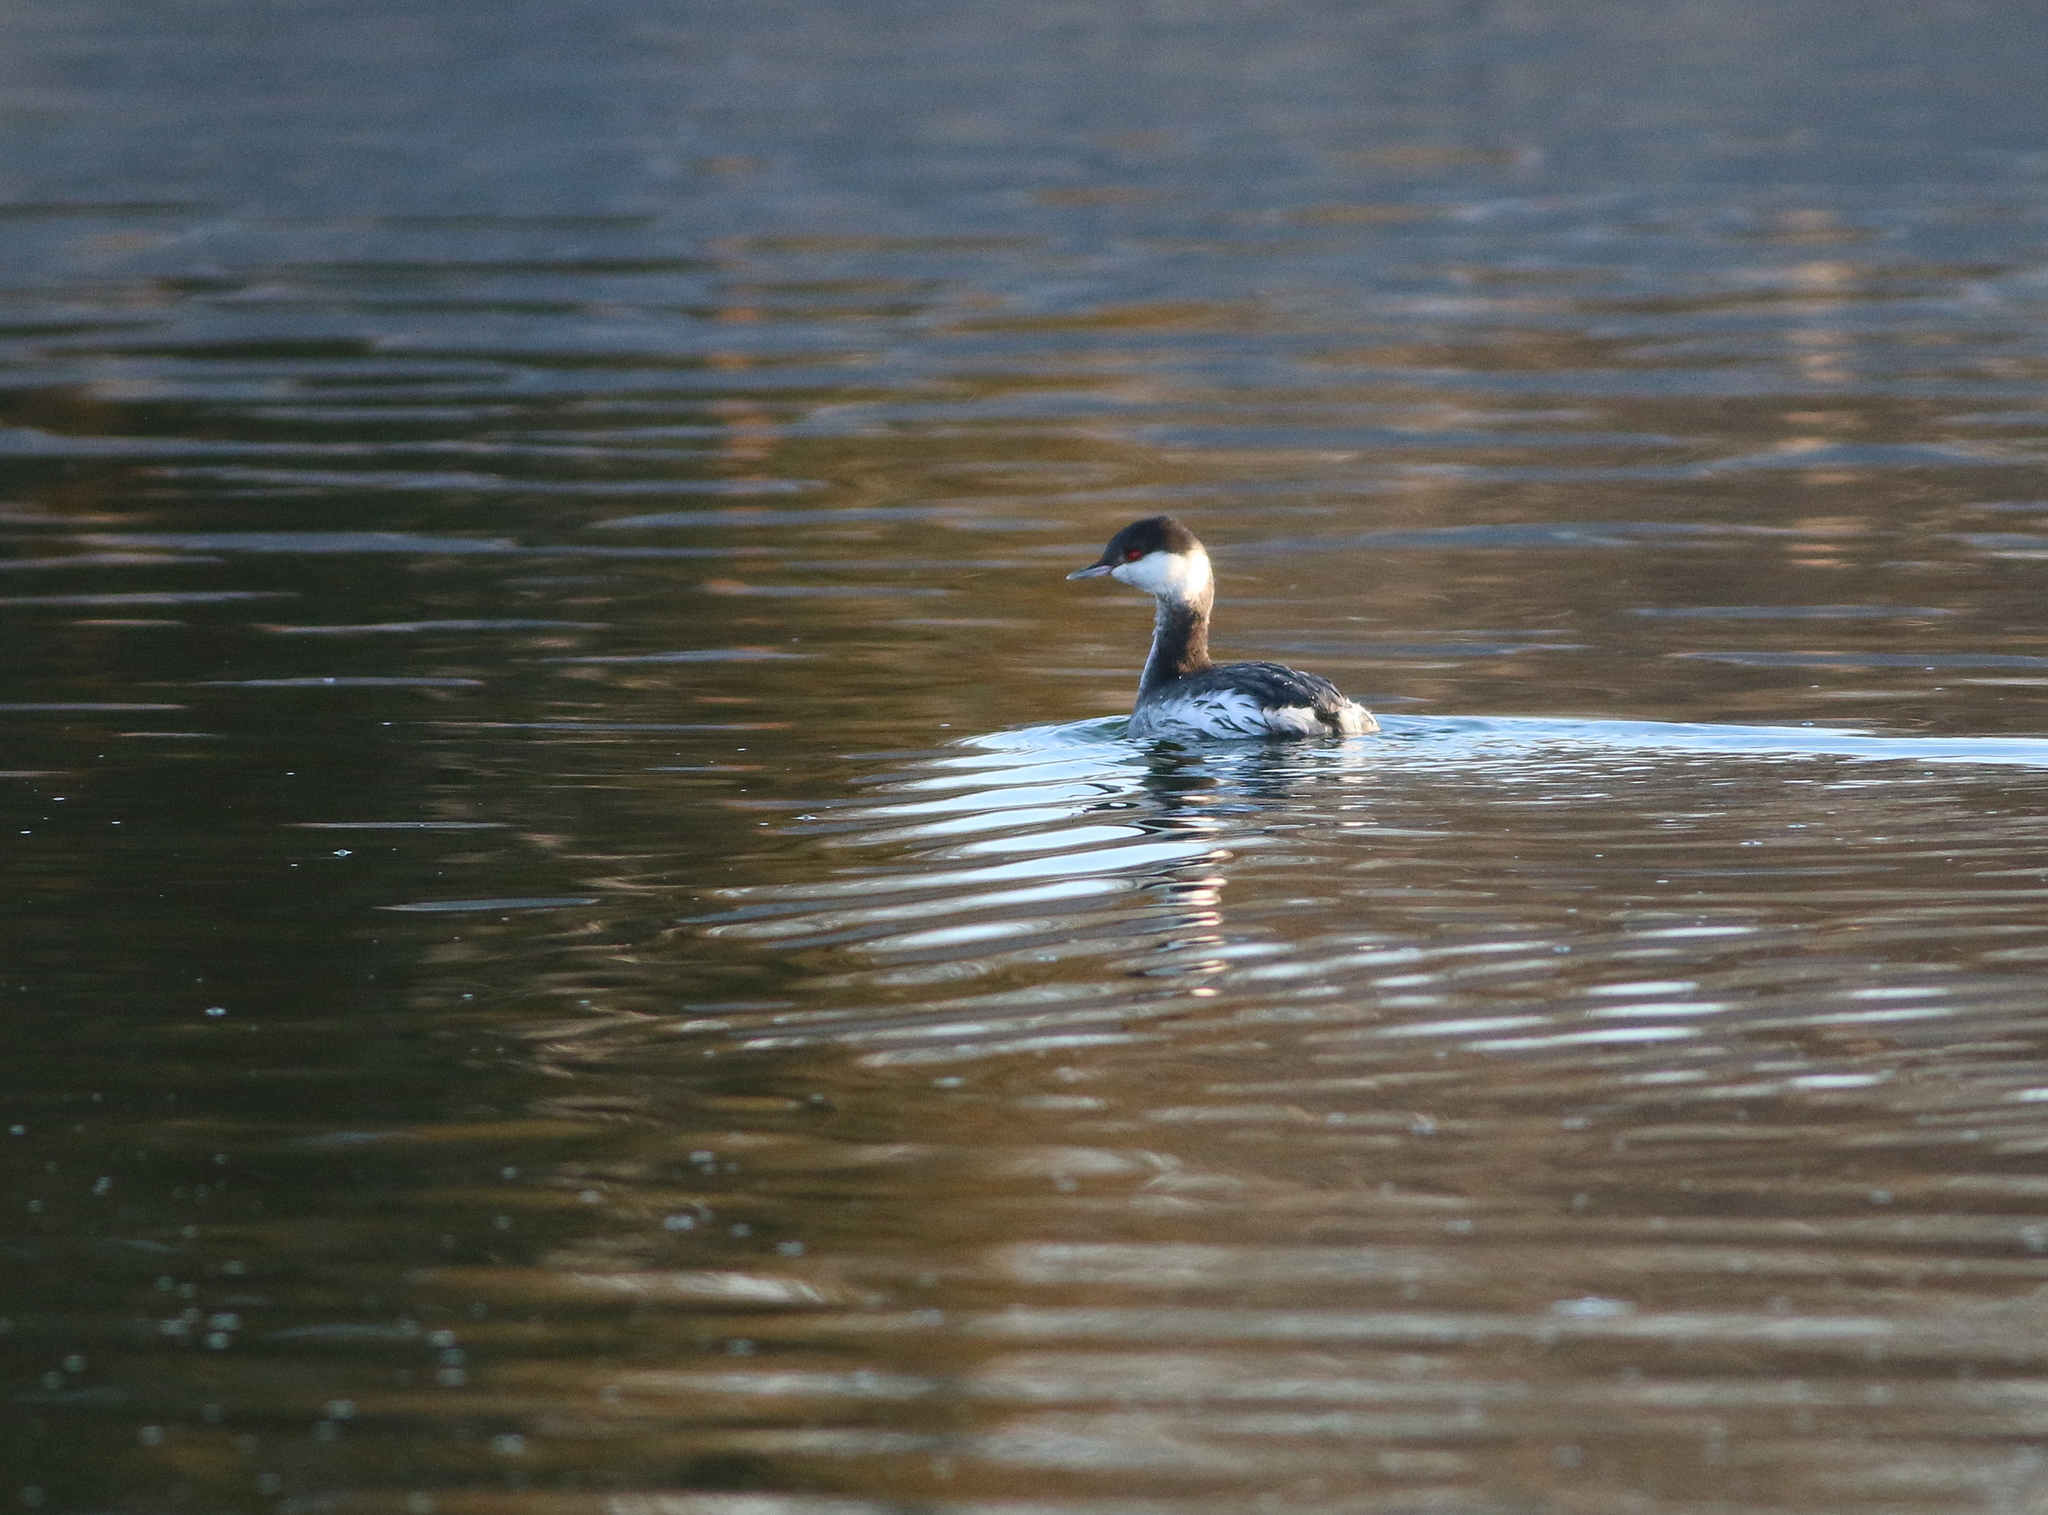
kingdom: Animalia
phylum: Chordata
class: Aves
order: Podicipediformes
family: Podicipedidae
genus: Podiceps
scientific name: Podiceps auritus
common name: Horned grebe
